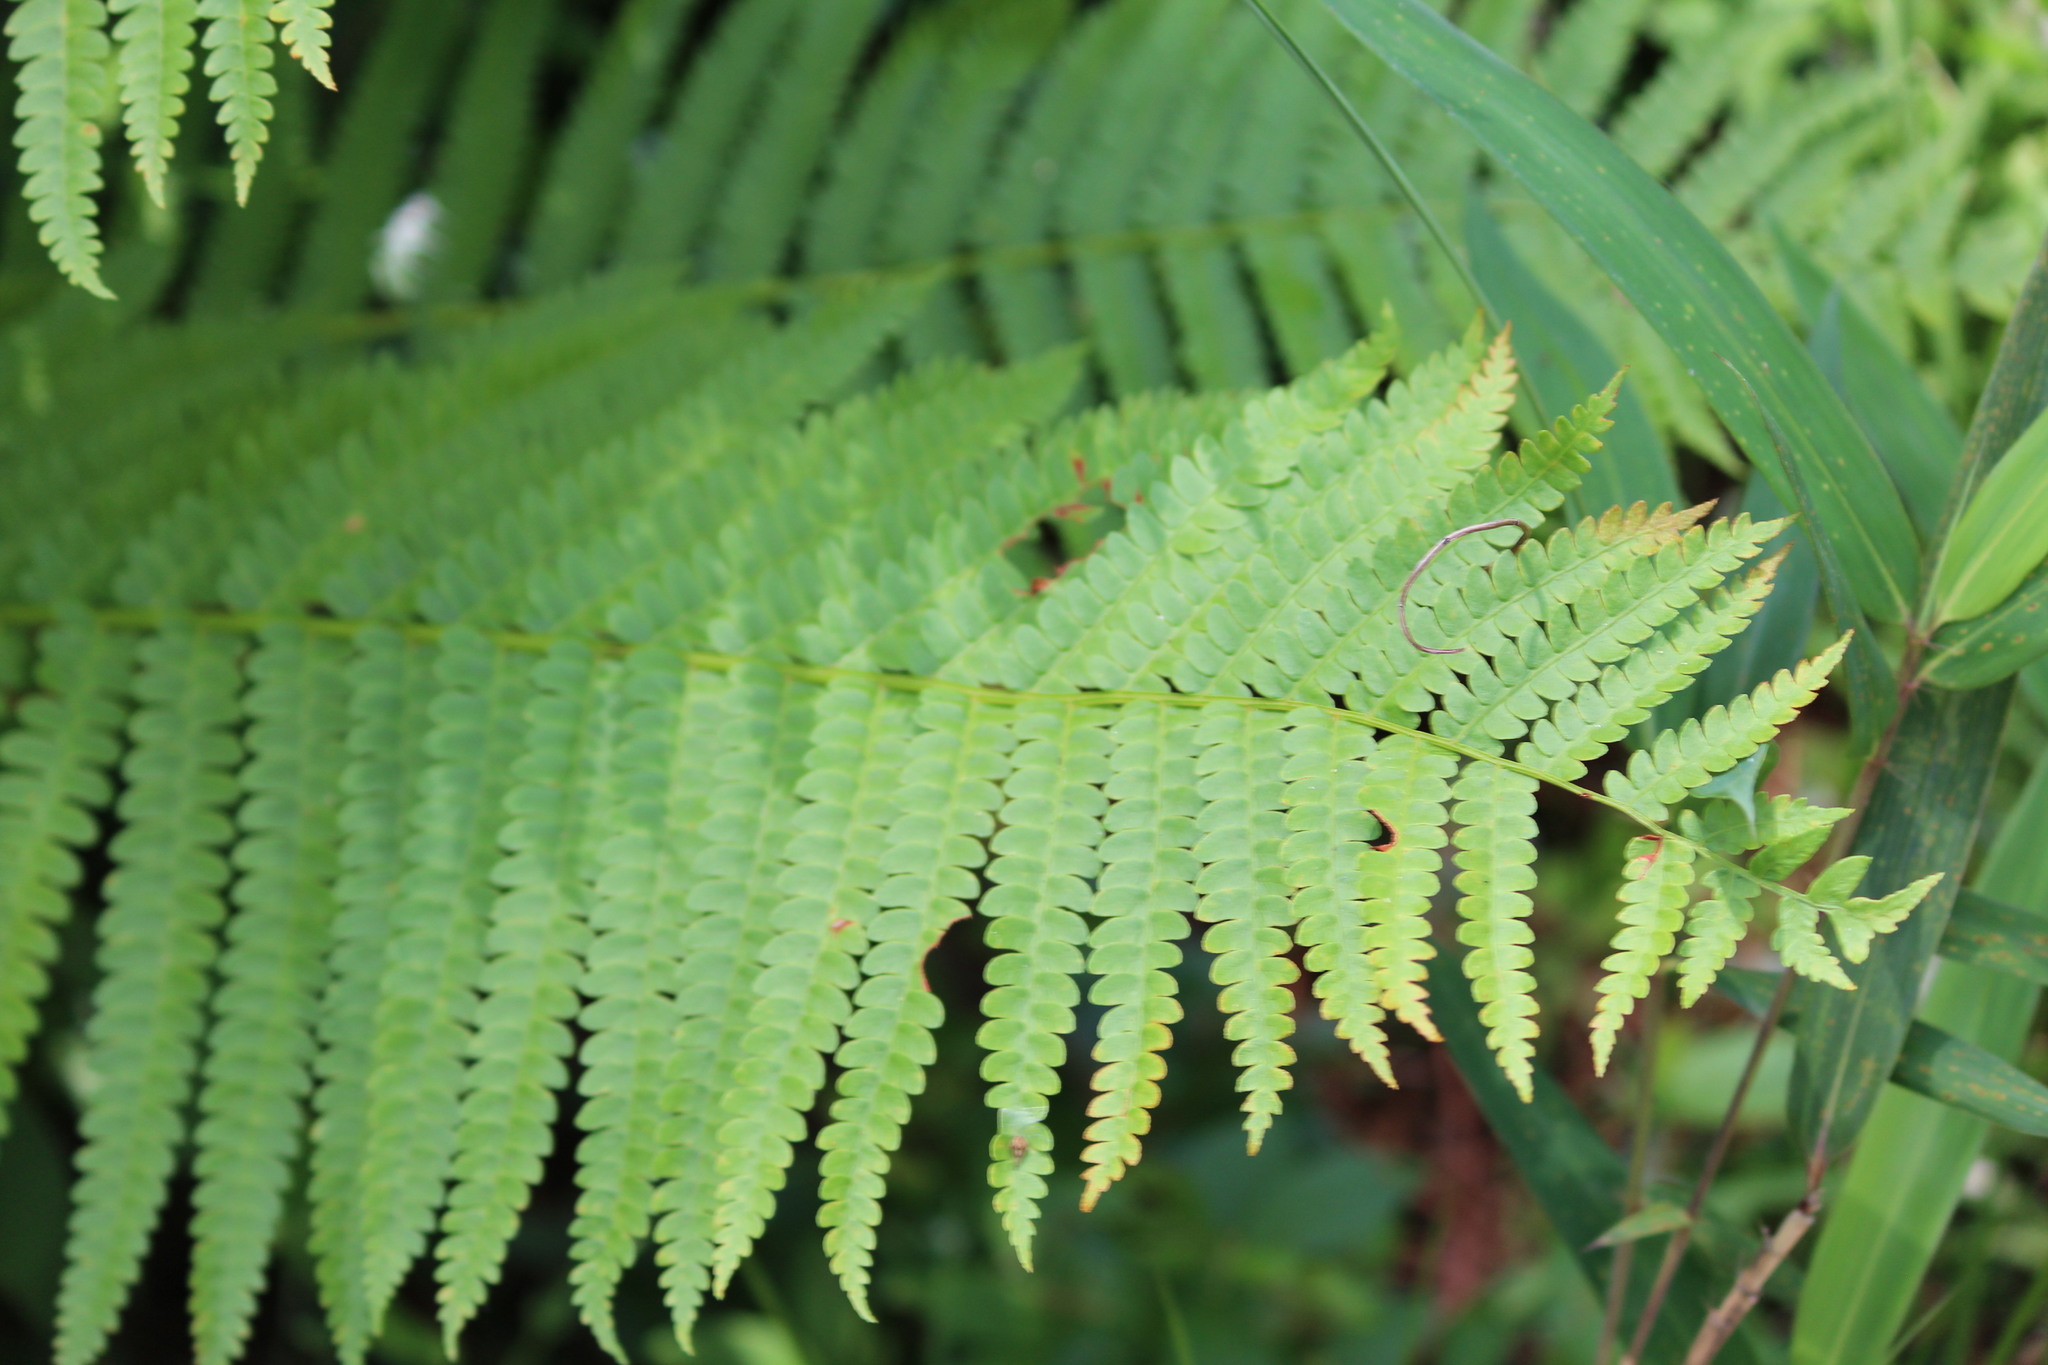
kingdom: Plantae
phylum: Tracheophyta
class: Polypodiopsida
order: Osmundales
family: Osmundaceae
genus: Osmundastrum
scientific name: Osmundastrum cinnamomeum
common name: Cinnamon fern
